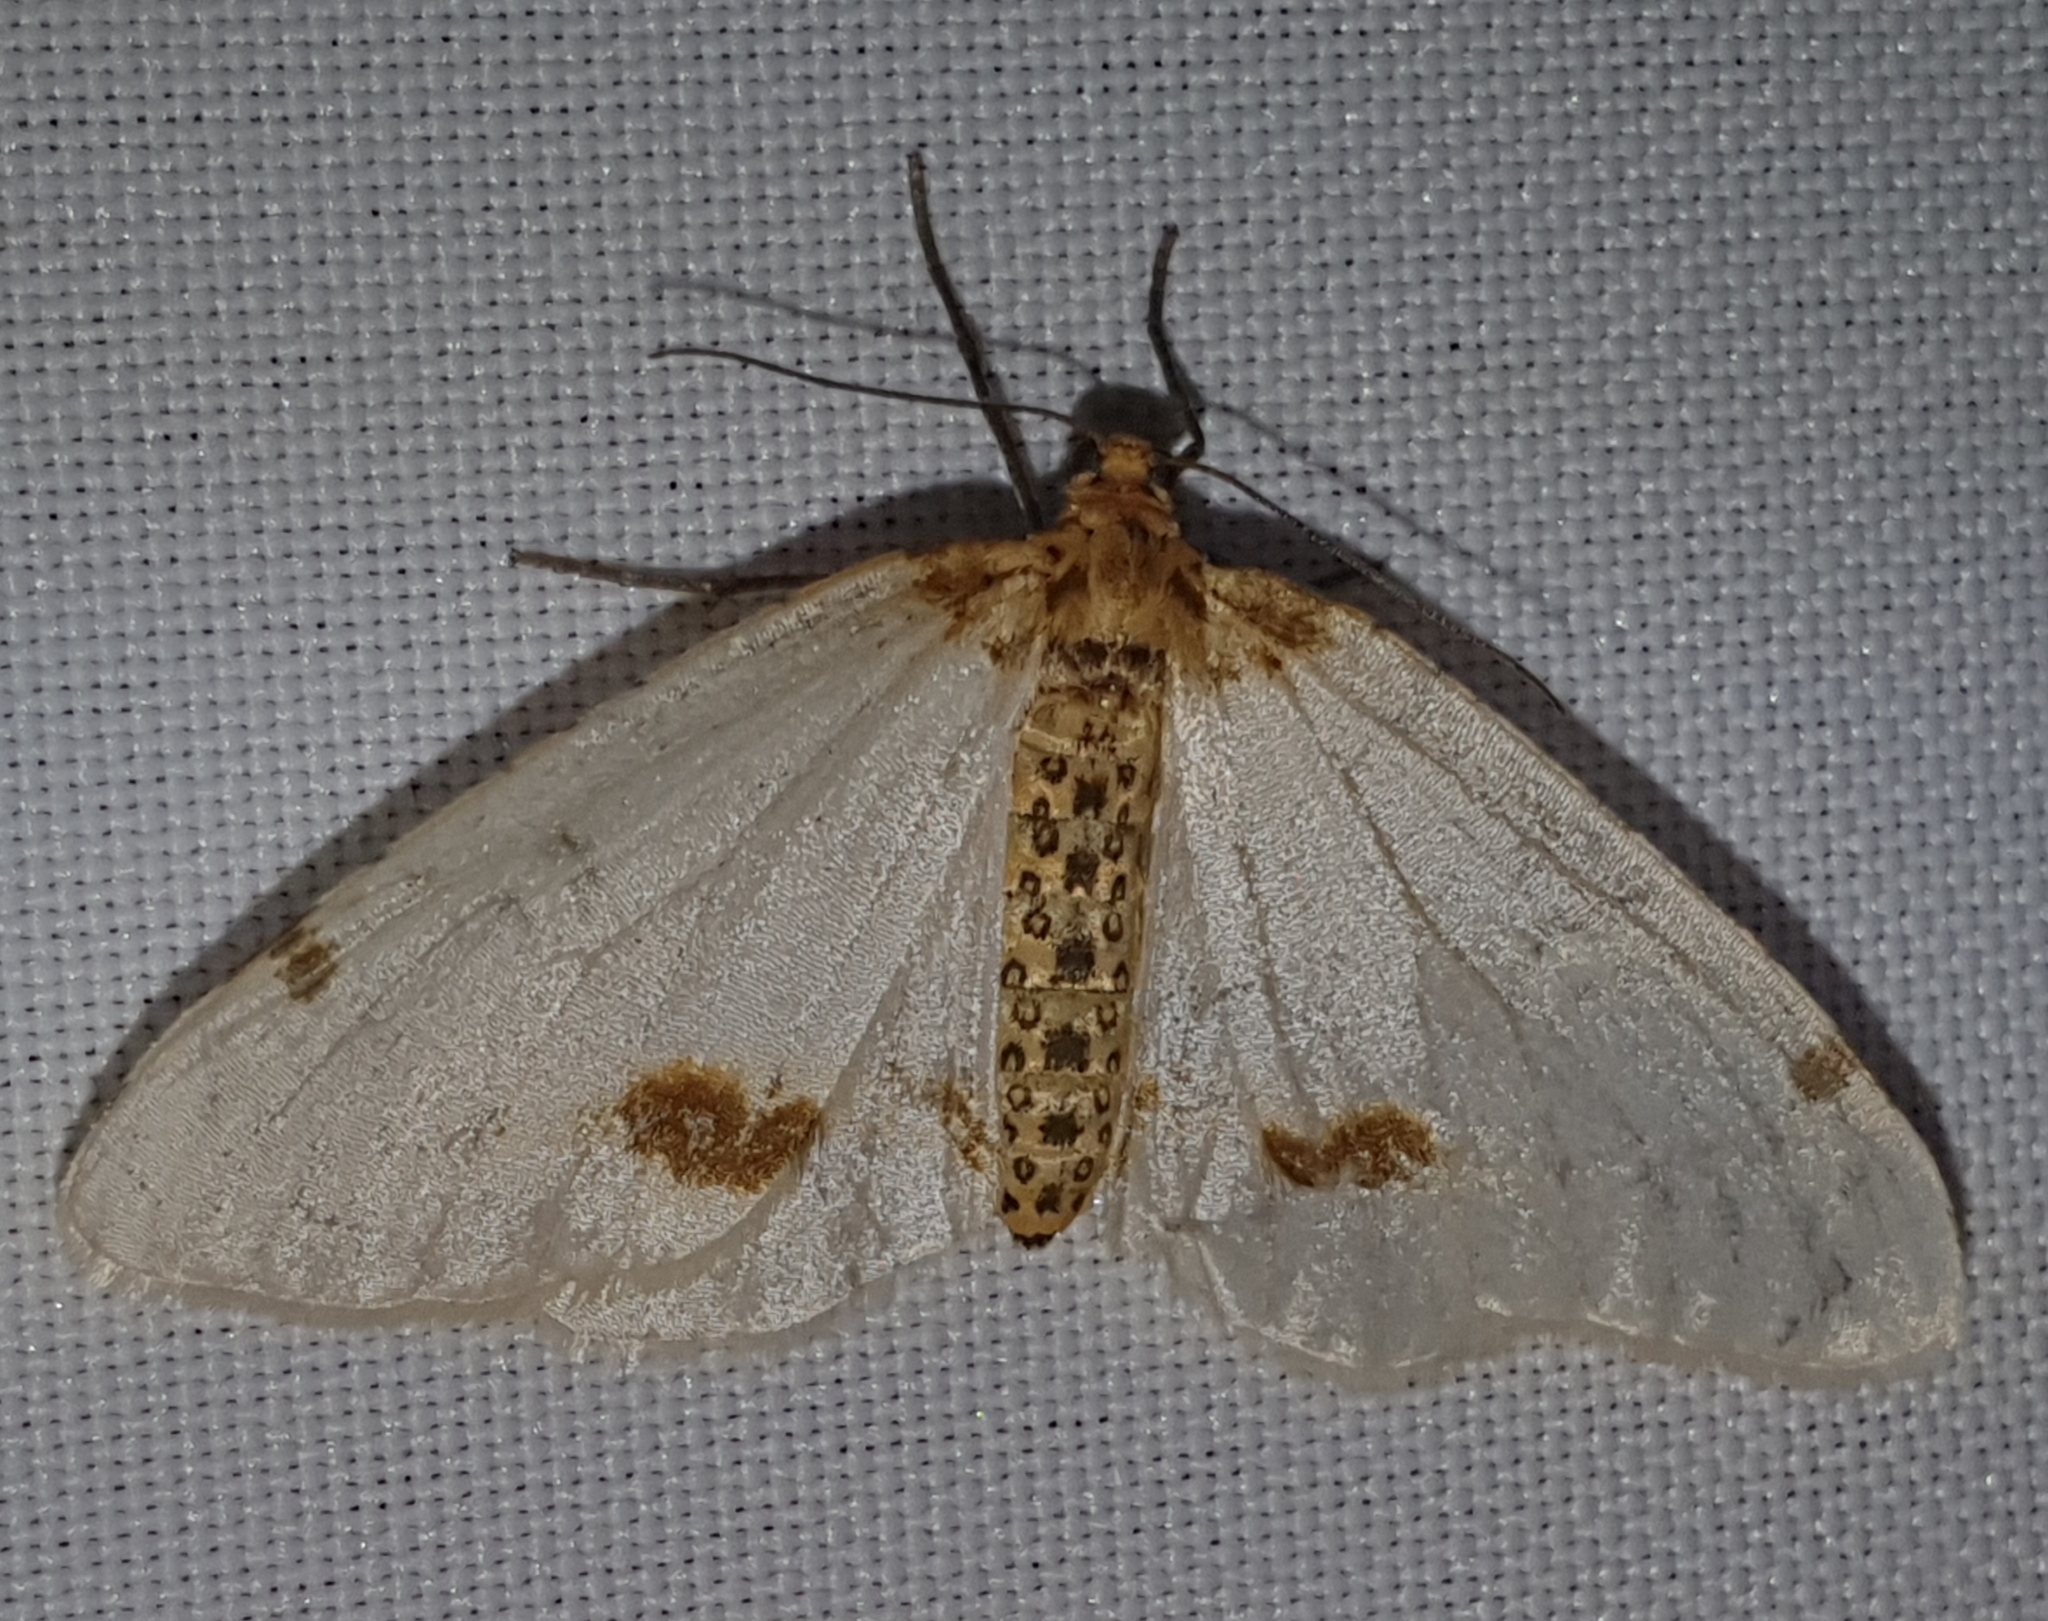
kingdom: Animalia
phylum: Arthropoda
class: Insecta
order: Lepidoptera
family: Geometridae
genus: Abraxas
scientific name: Abraxas pantaria
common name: Light magpie
